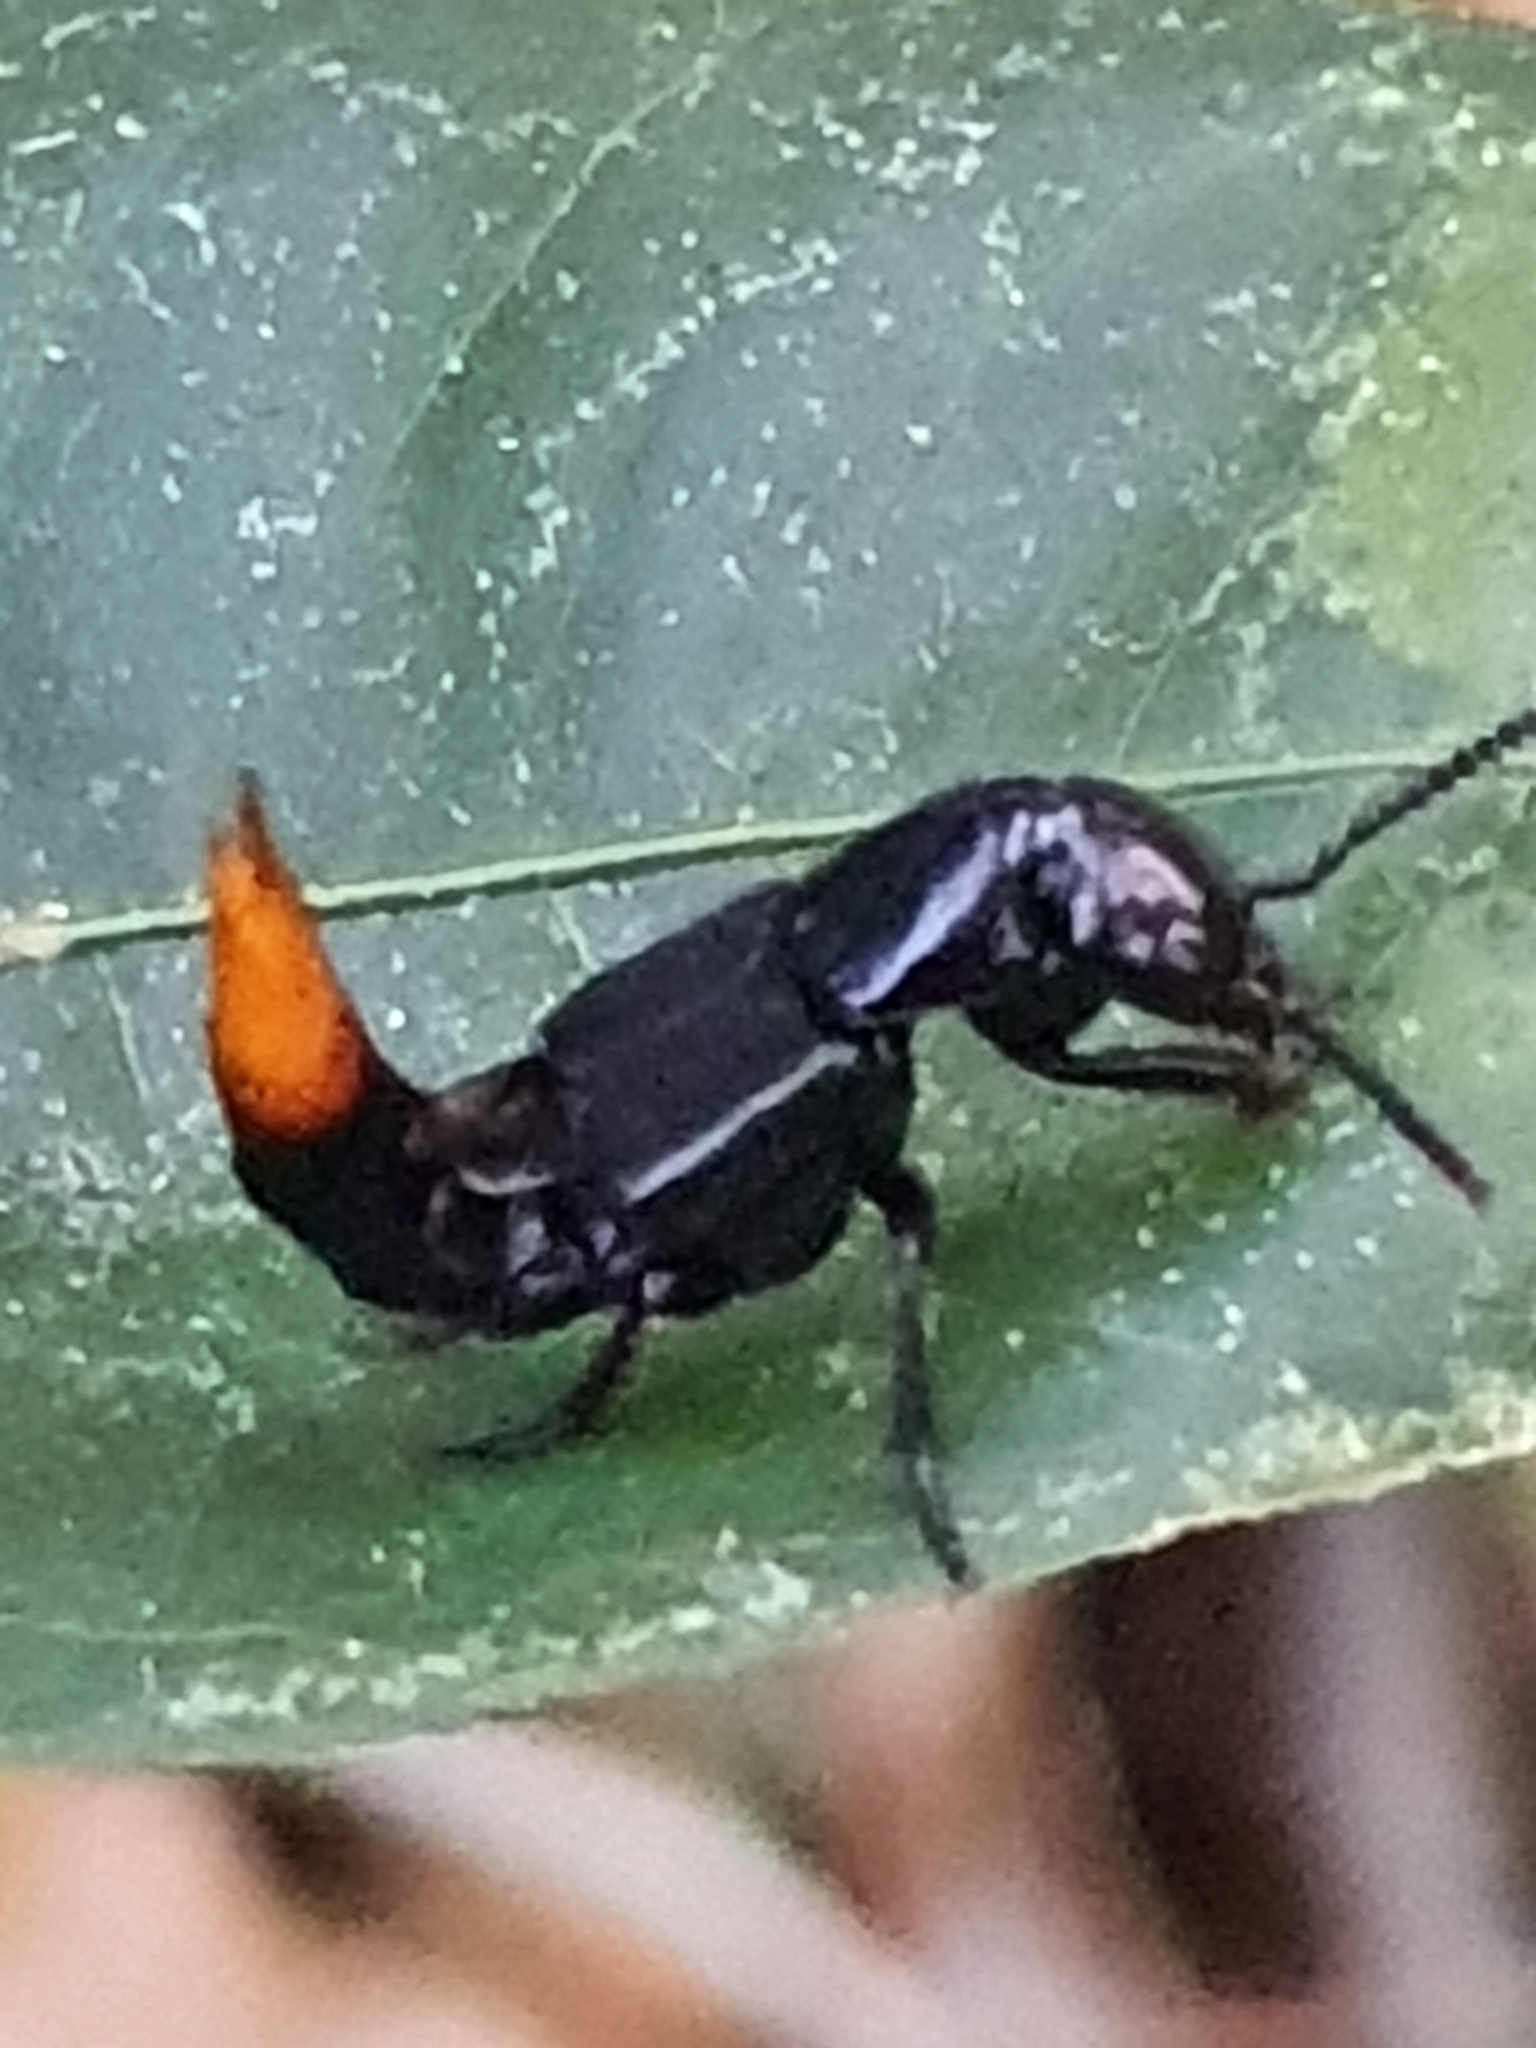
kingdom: Animalia
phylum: Arthropoda
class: Insecta
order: Coleoptera
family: Staphylinidae
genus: Xanthopygus
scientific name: Xanthopygus pexus
